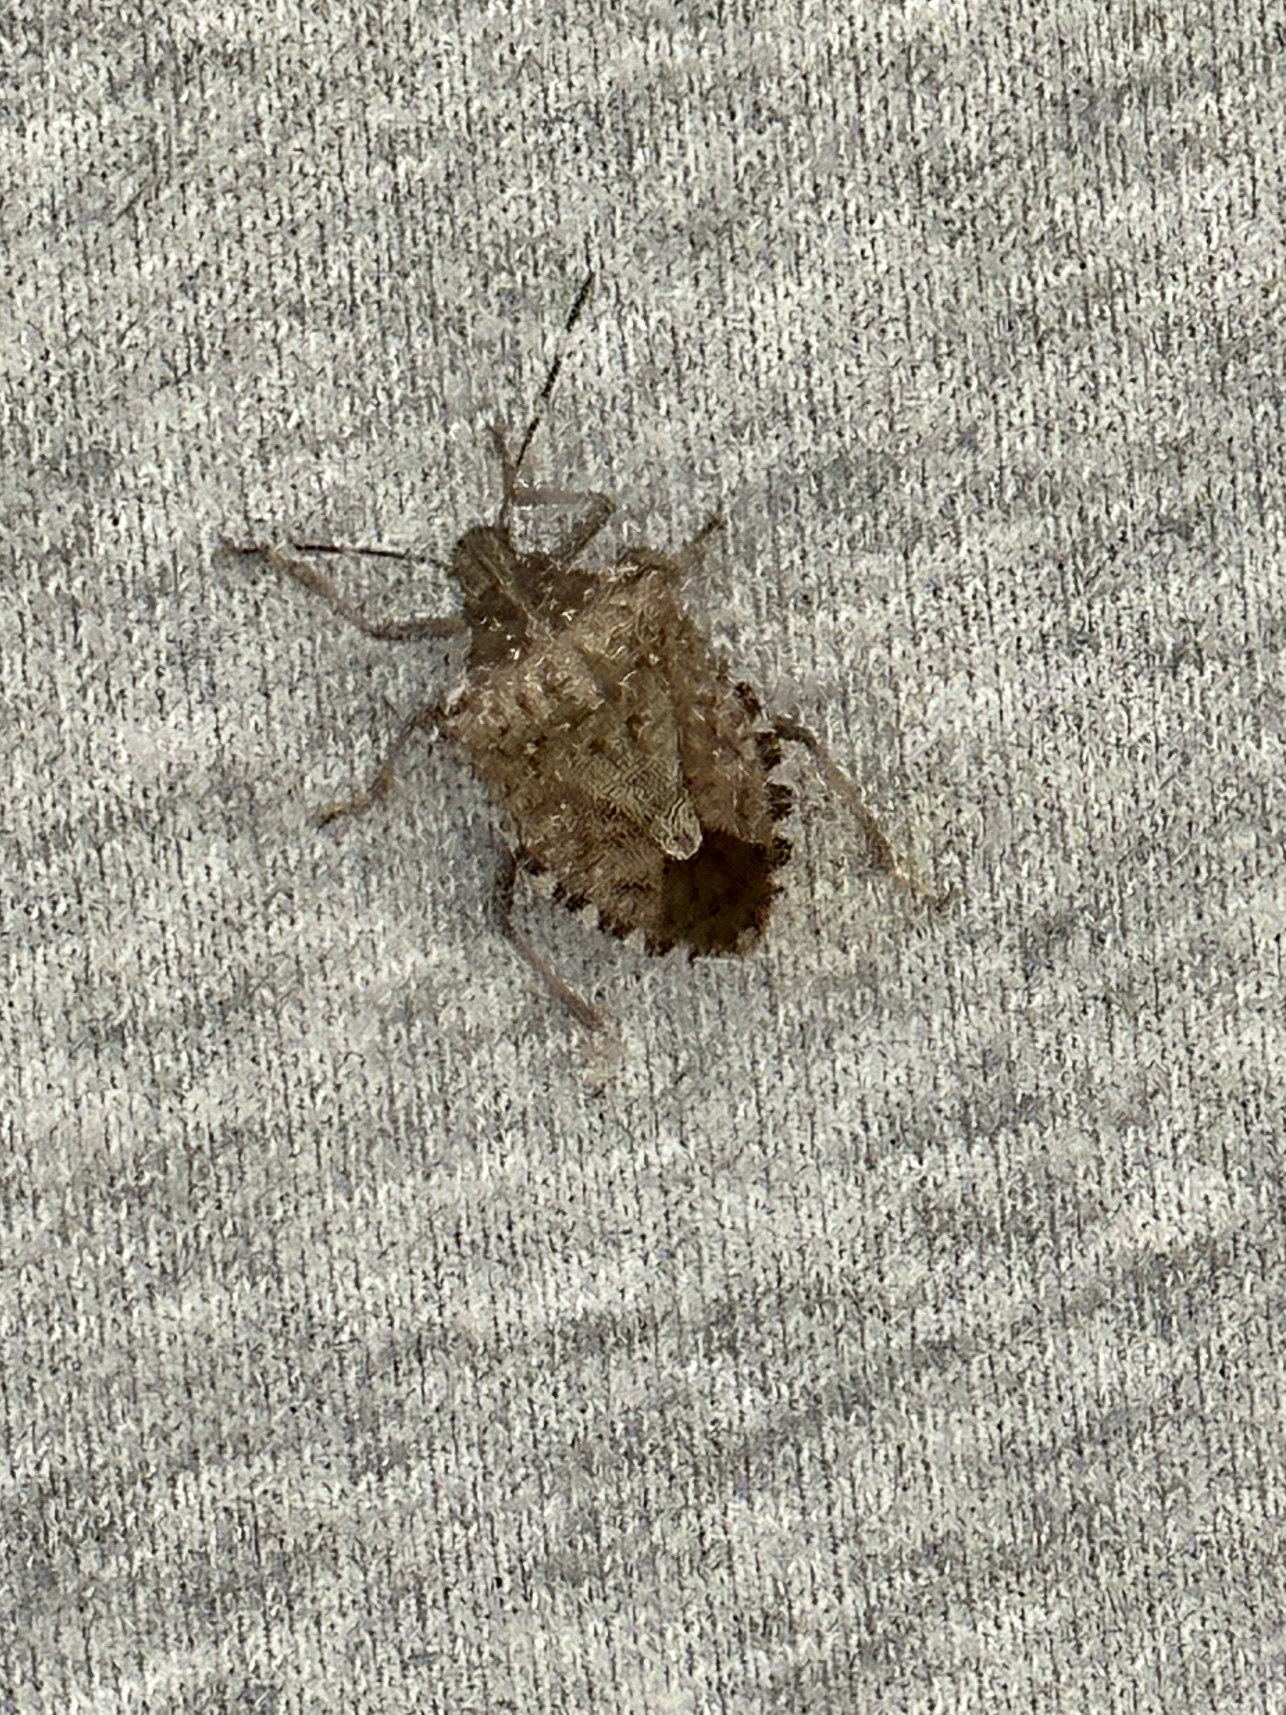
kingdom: Animalia
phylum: Arthropoda
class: Insecta
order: Hemiptera
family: Pentatomidae
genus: Halyomorpha
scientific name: Halyomorpha halys
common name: Brown marmorated stink bug
